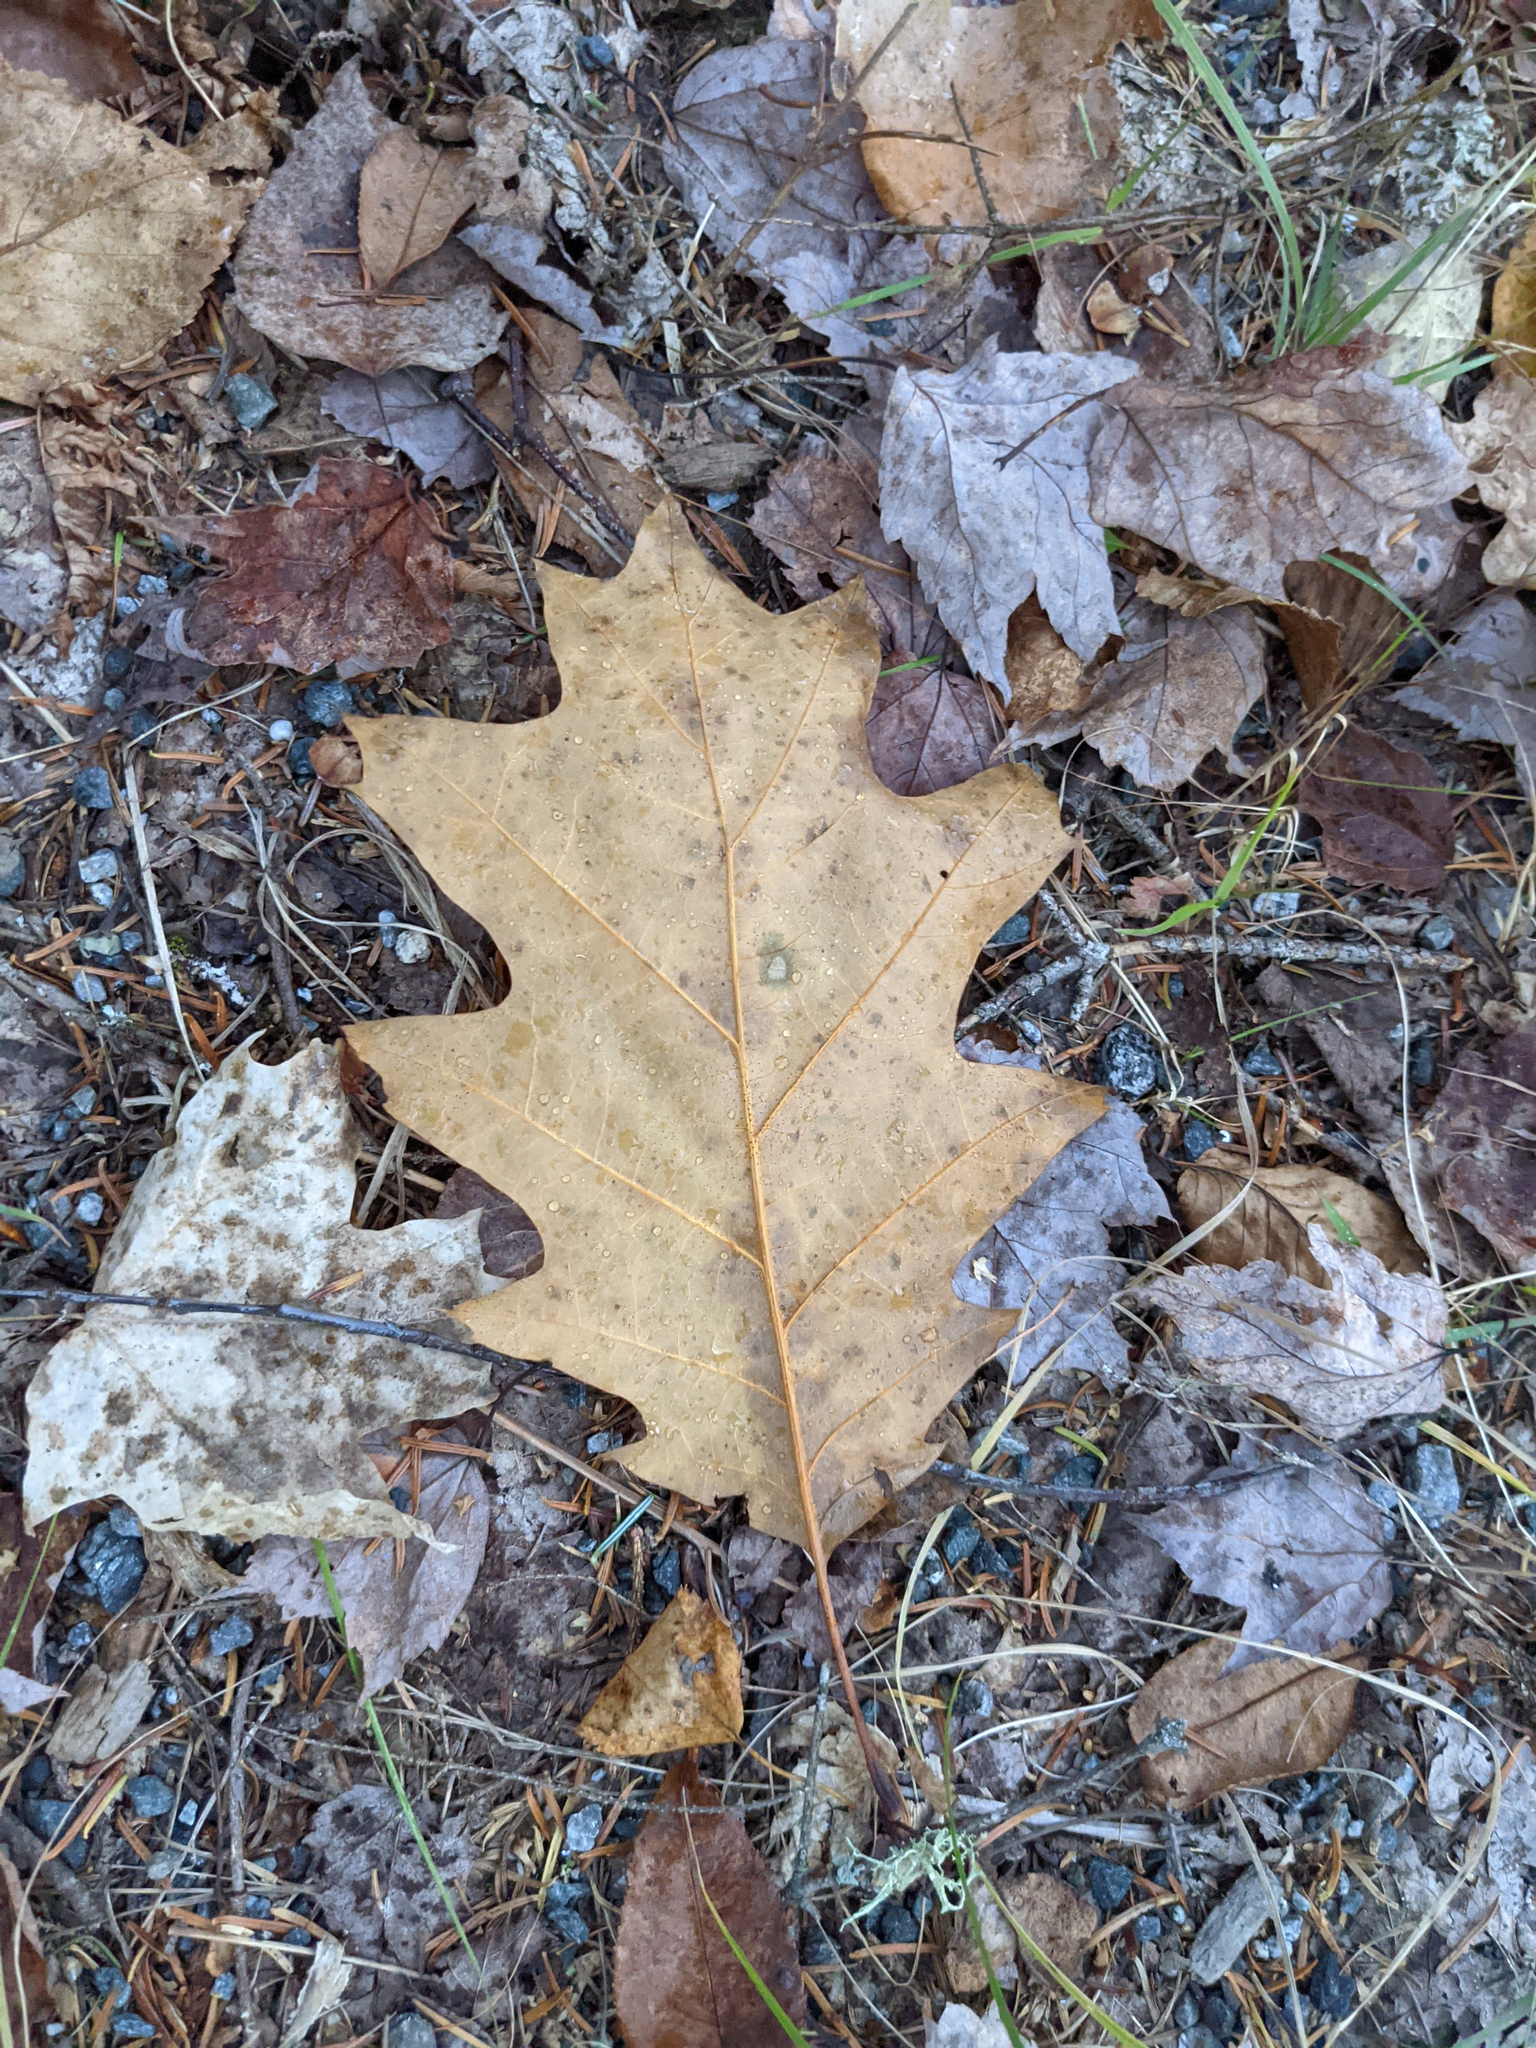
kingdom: Plantae
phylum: Tracheophyta
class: Magnoliopsida
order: Fagales
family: Fagaceae
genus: Quercus
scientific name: Quercus rubra
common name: Red oak
